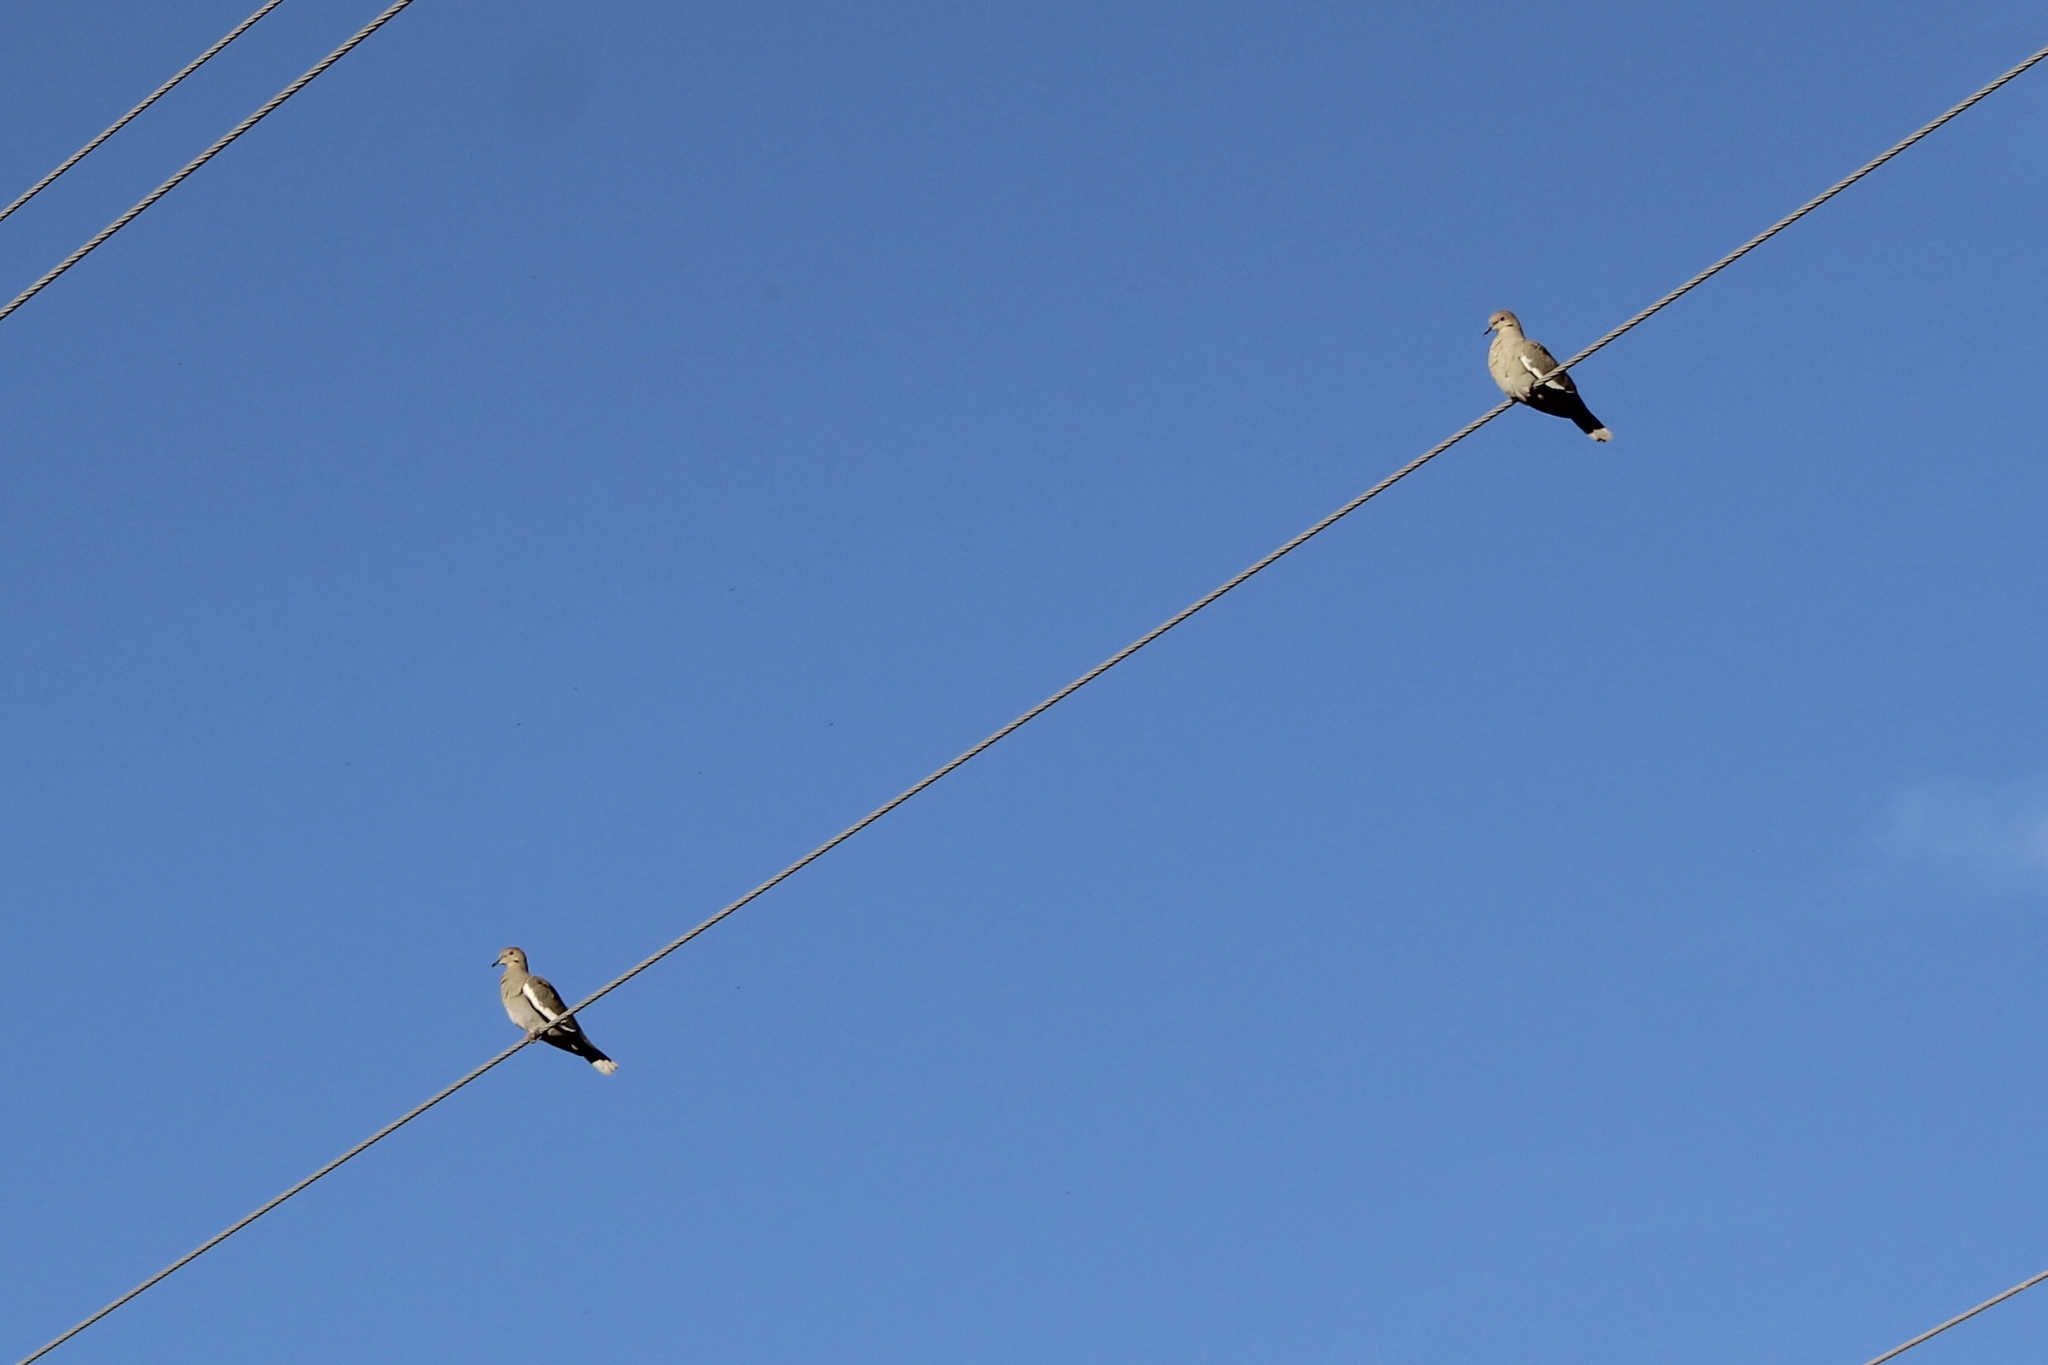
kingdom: Animalia
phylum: Chordata
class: Aves
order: Columbiformes
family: Columbidae
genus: Zenaida
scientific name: Zenaida asiatica
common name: White-winged dove
